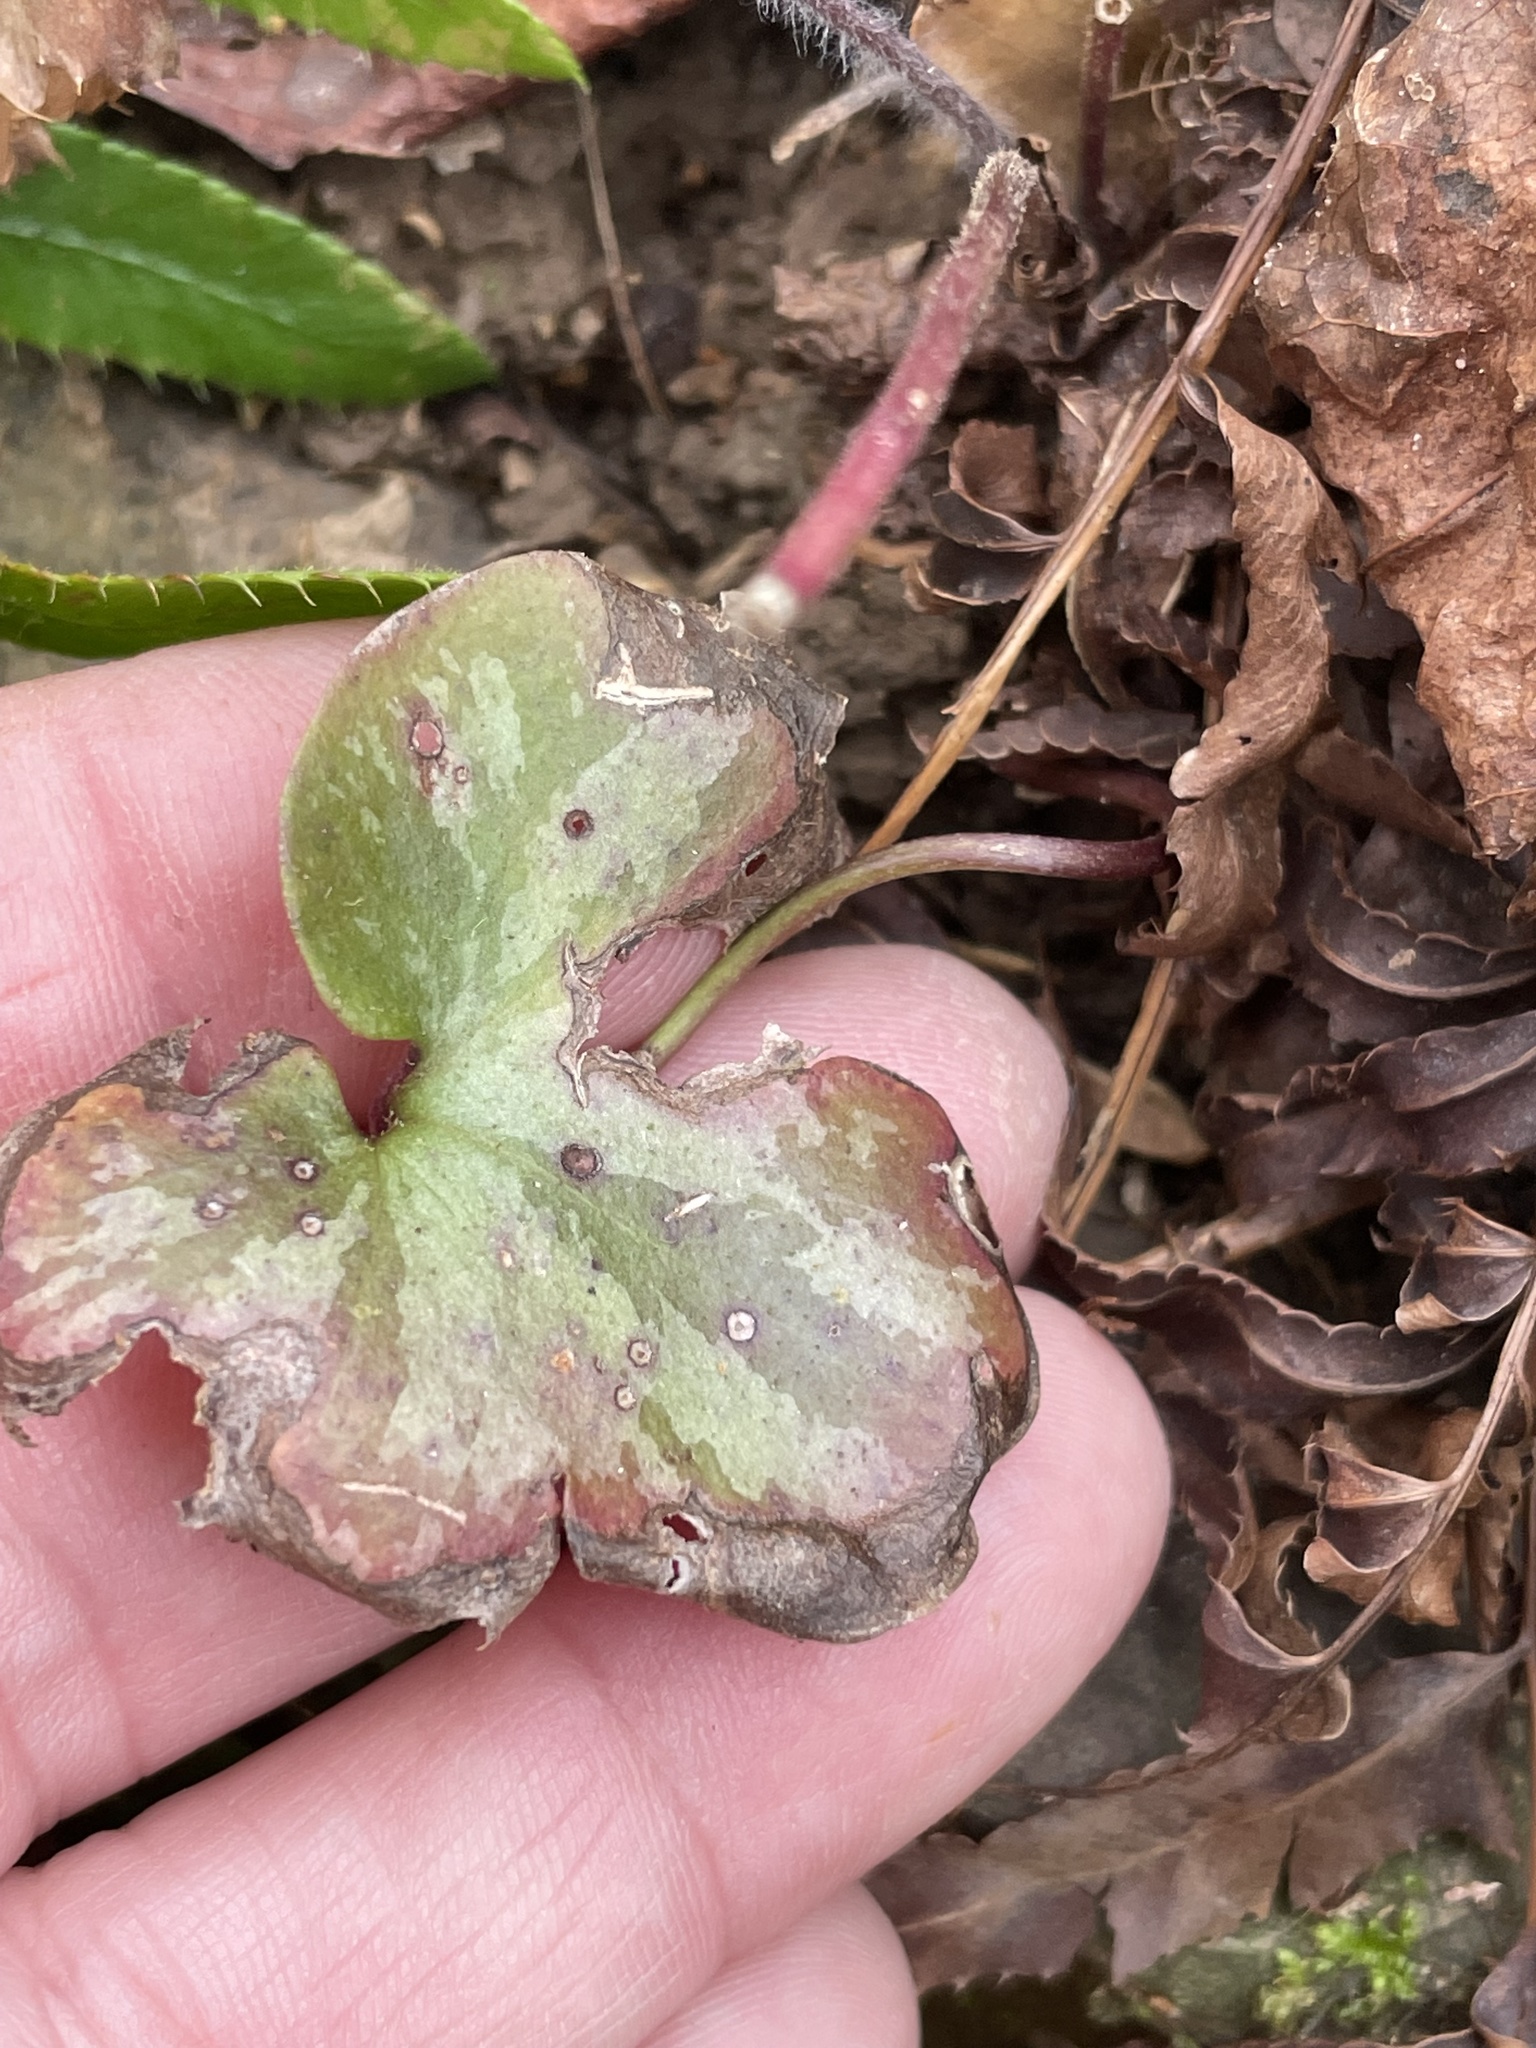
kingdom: Plantae
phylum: Tracheophyta
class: Magnoliopsida
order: Ranunculales
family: Ranunculaceae
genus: Hepatica
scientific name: Hepatica americana
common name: American hepatica
